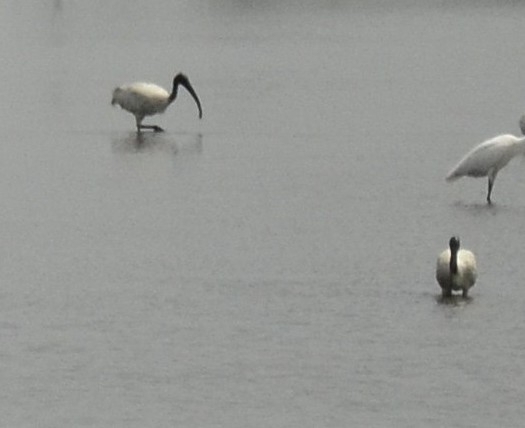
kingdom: Animalia
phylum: Chordata
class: Aves
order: Pelecaniformes
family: Threskiornithidae
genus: Threskiornis
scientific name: Threskiornis melanocephalus
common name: Black-headed ibis
